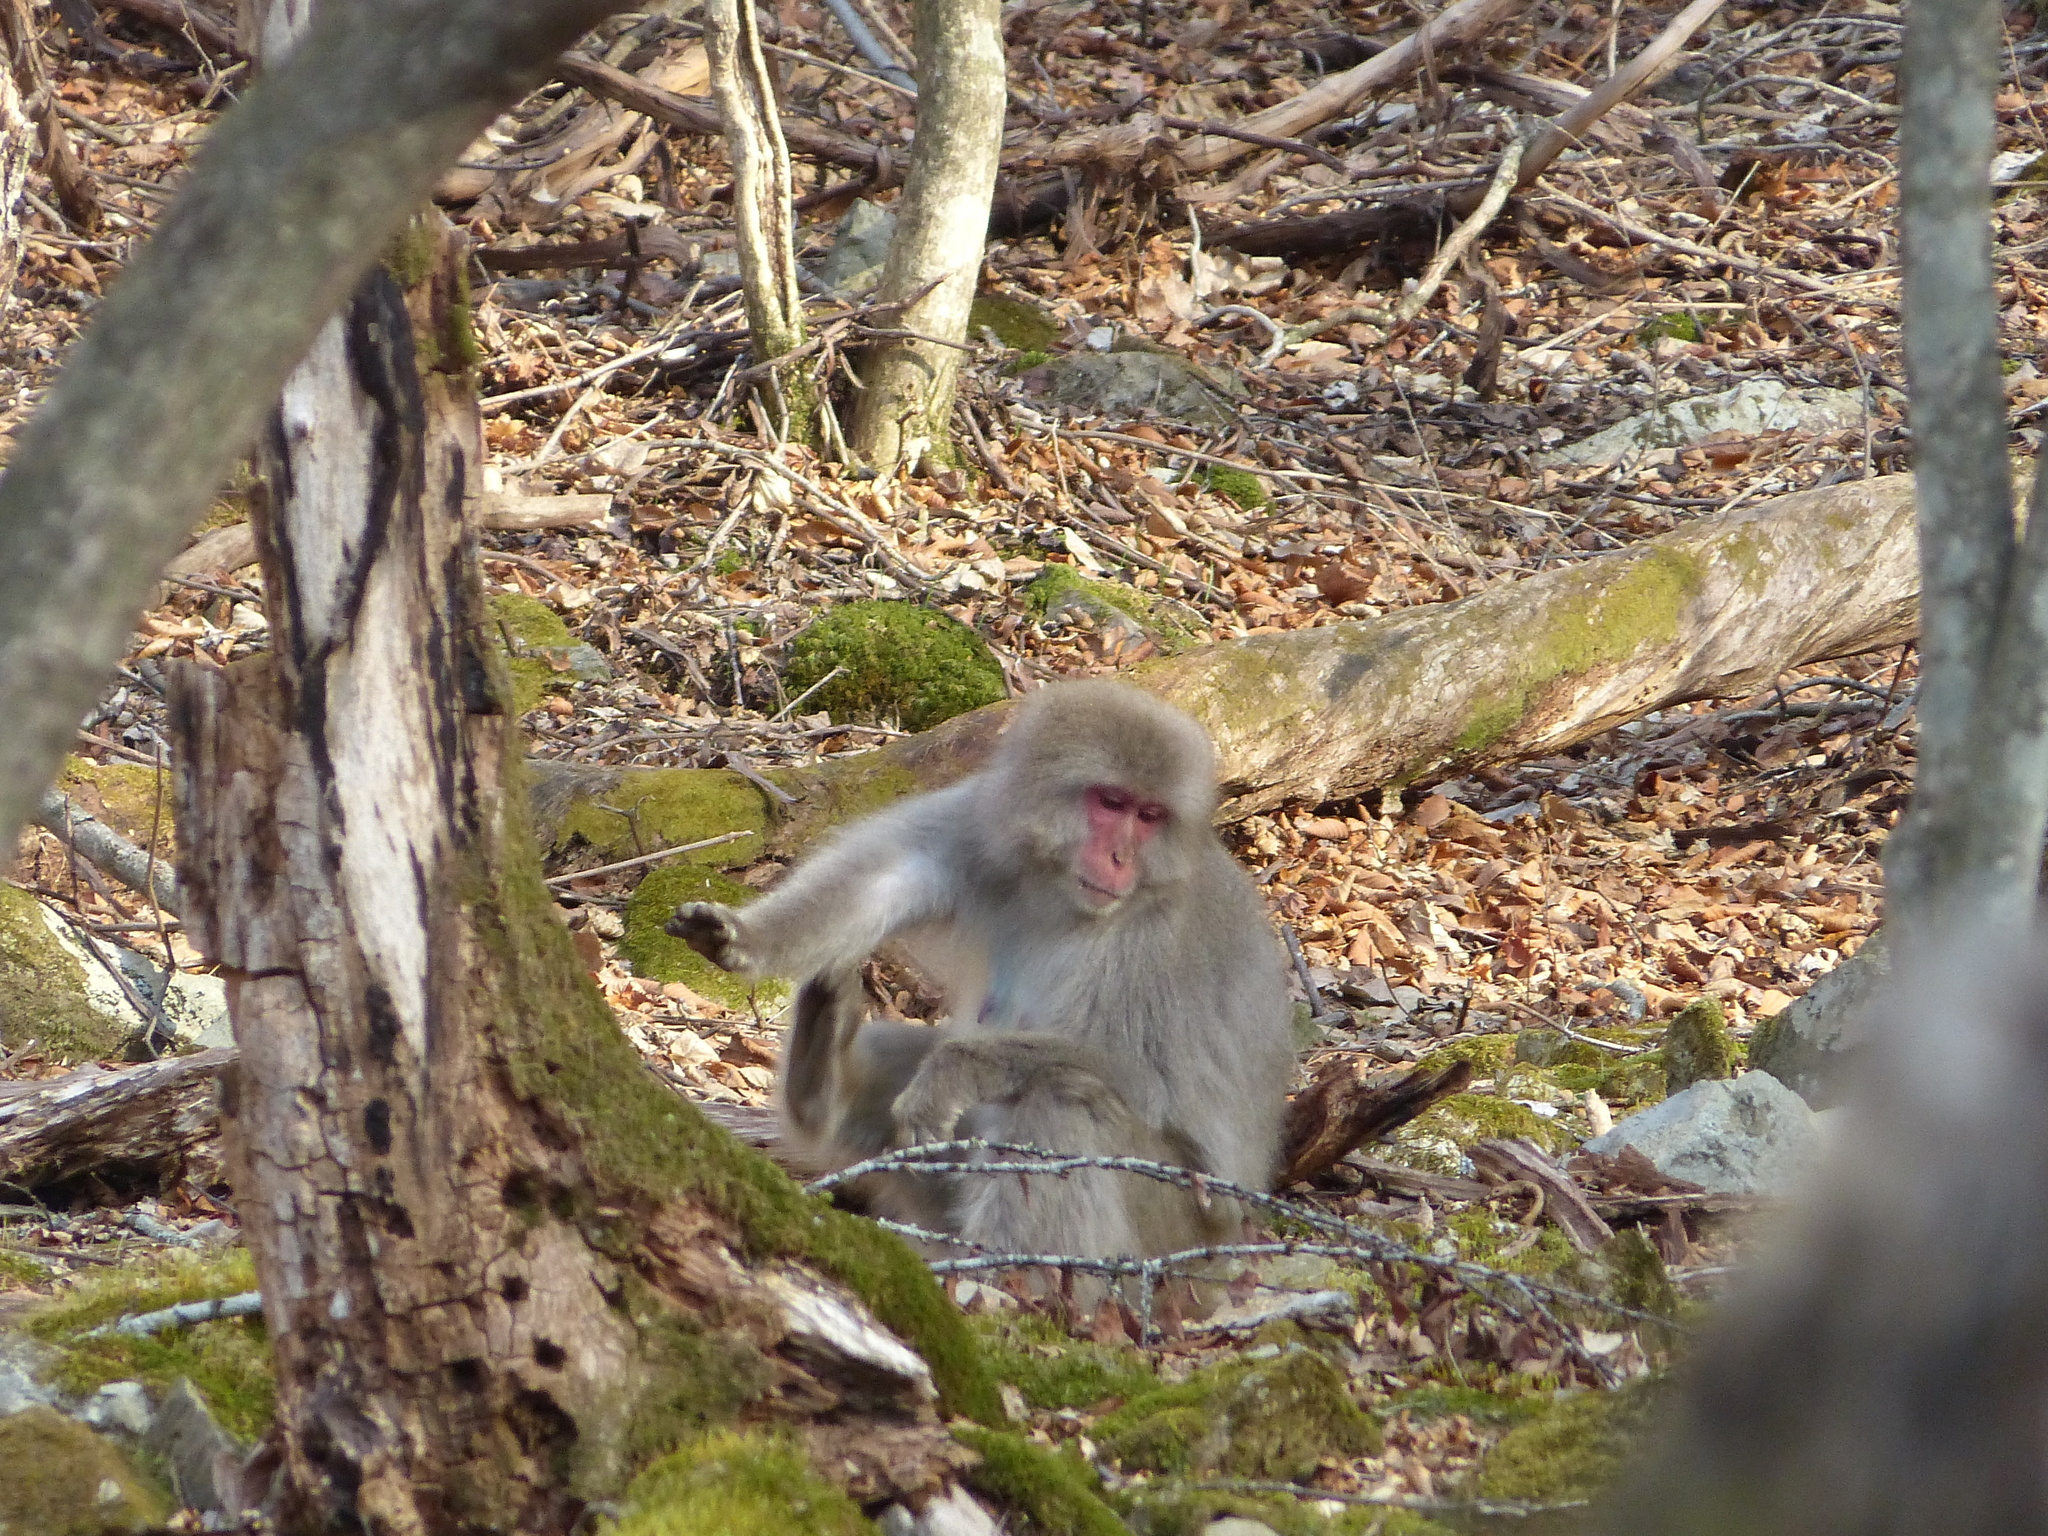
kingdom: Animalia
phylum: Chordata
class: Mammalia
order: Primates
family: Cercopithecidae
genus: Macaca
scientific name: Macaca fuscata
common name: Japanese macaque
